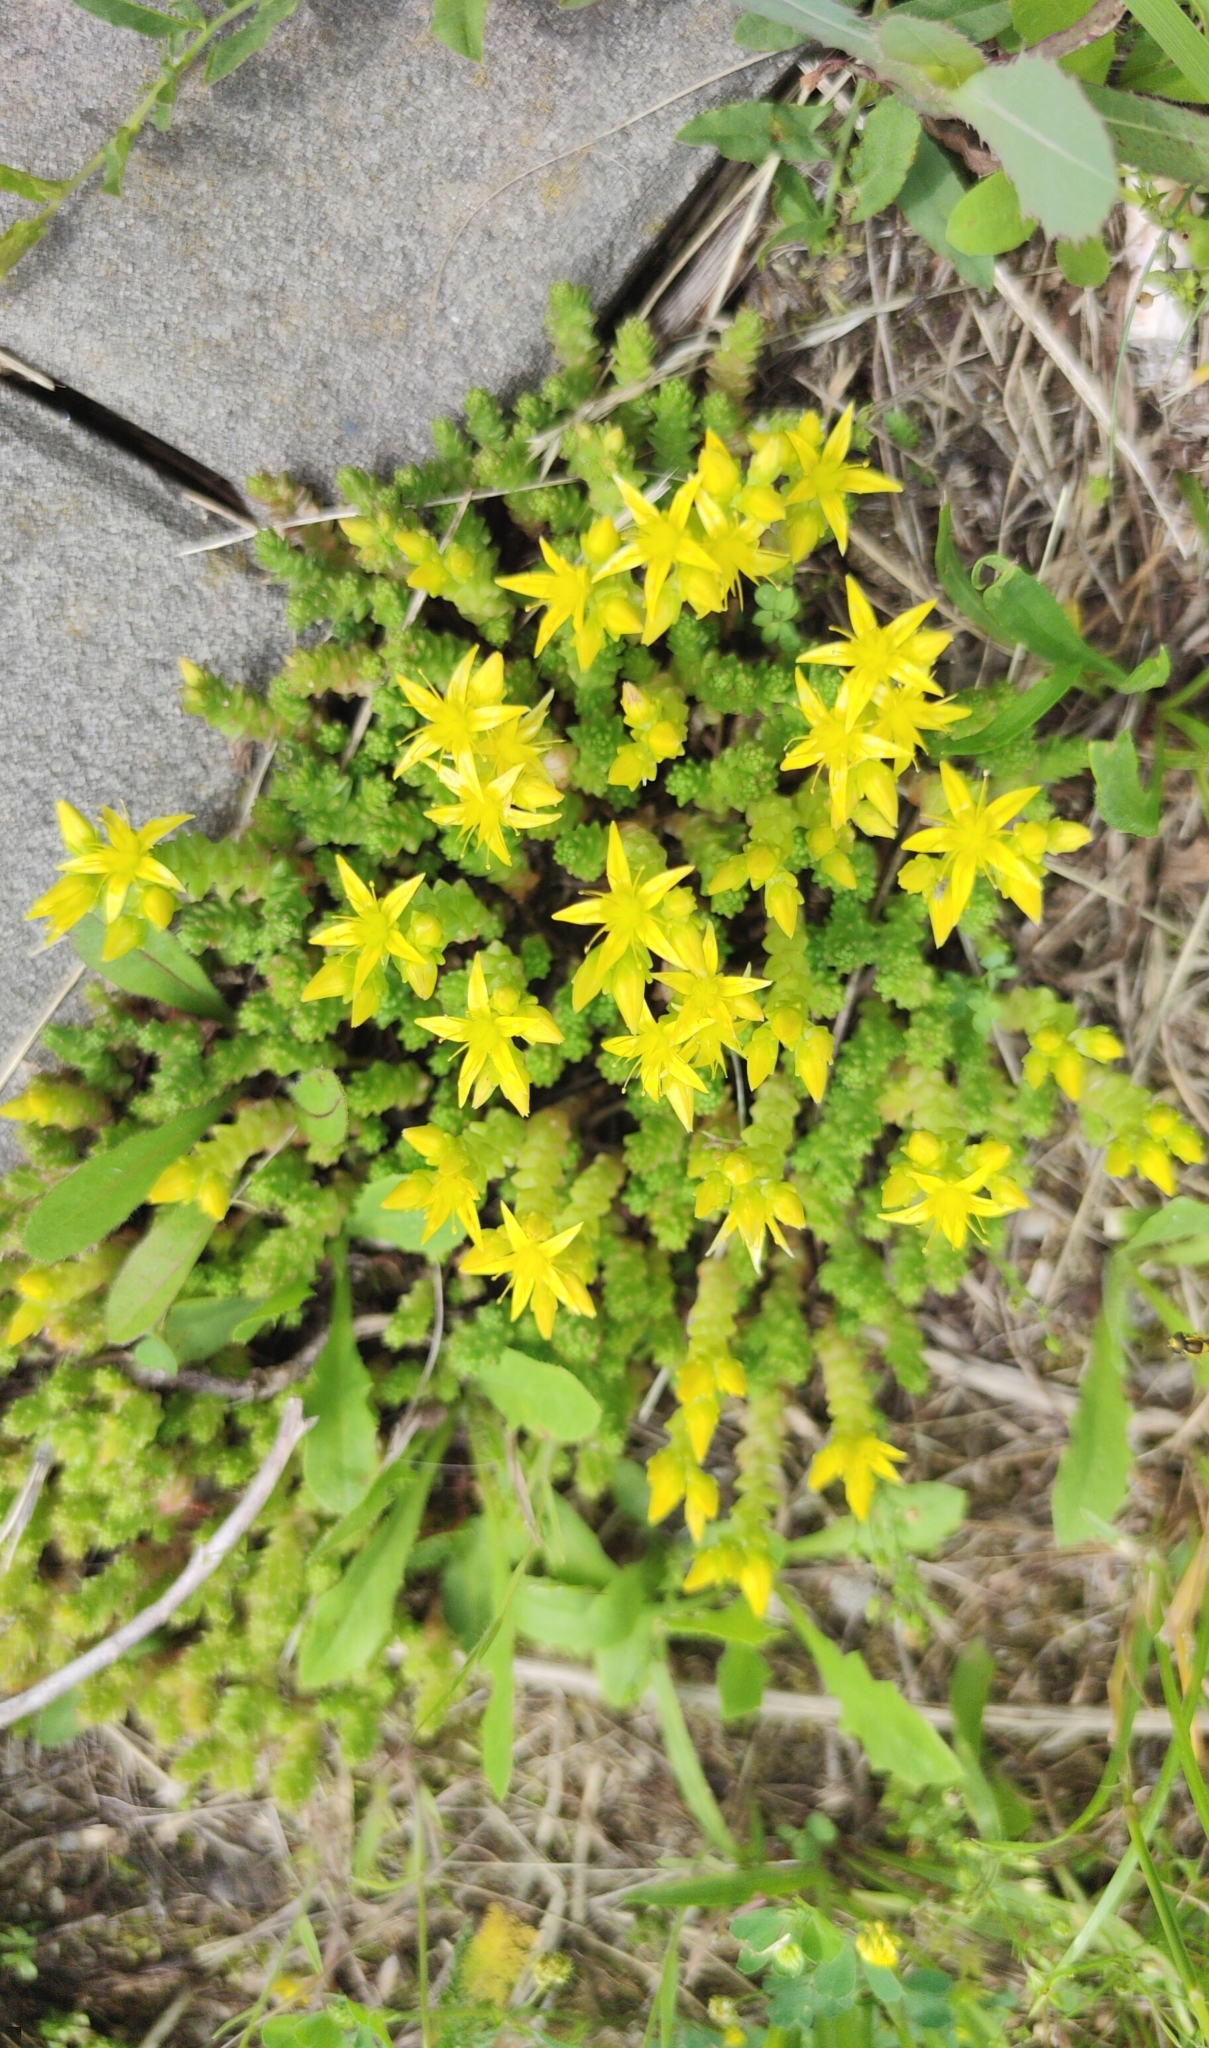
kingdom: Plantae
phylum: Tracheophyta
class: Magnoliopsida
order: Saxifragales
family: Crassulaceae
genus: Sedum
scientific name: Sedum acre
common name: Biting stonecrop
